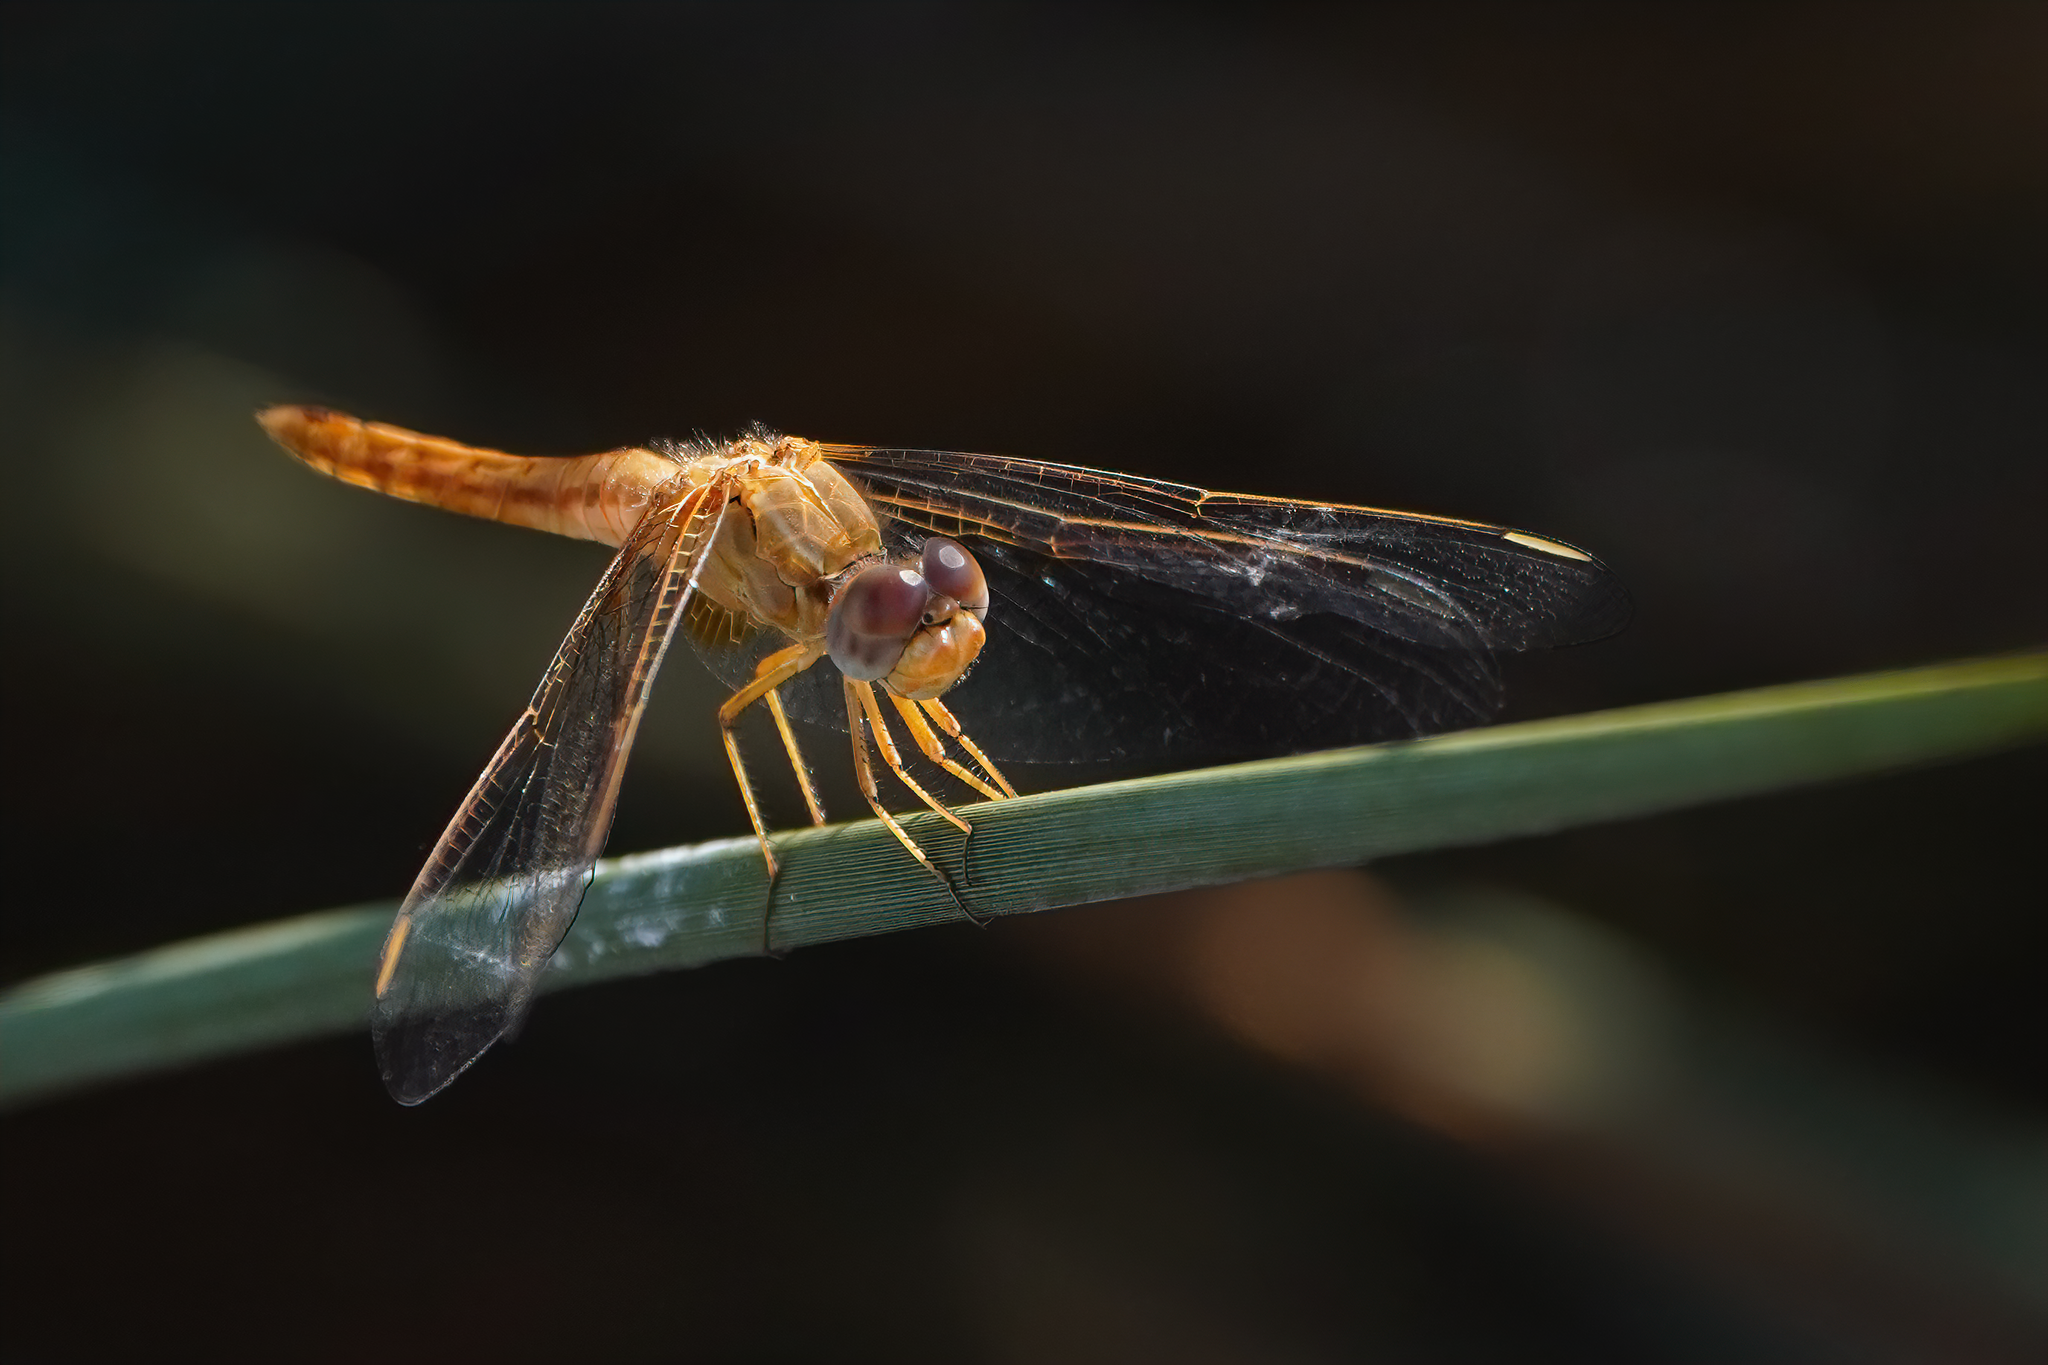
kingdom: Animalia
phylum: Arthropoda
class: Insecta
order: Odonata
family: Libellulidae
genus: Crocothemis
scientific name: Crocothemis erythraea
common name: Scarlet dragonfly
